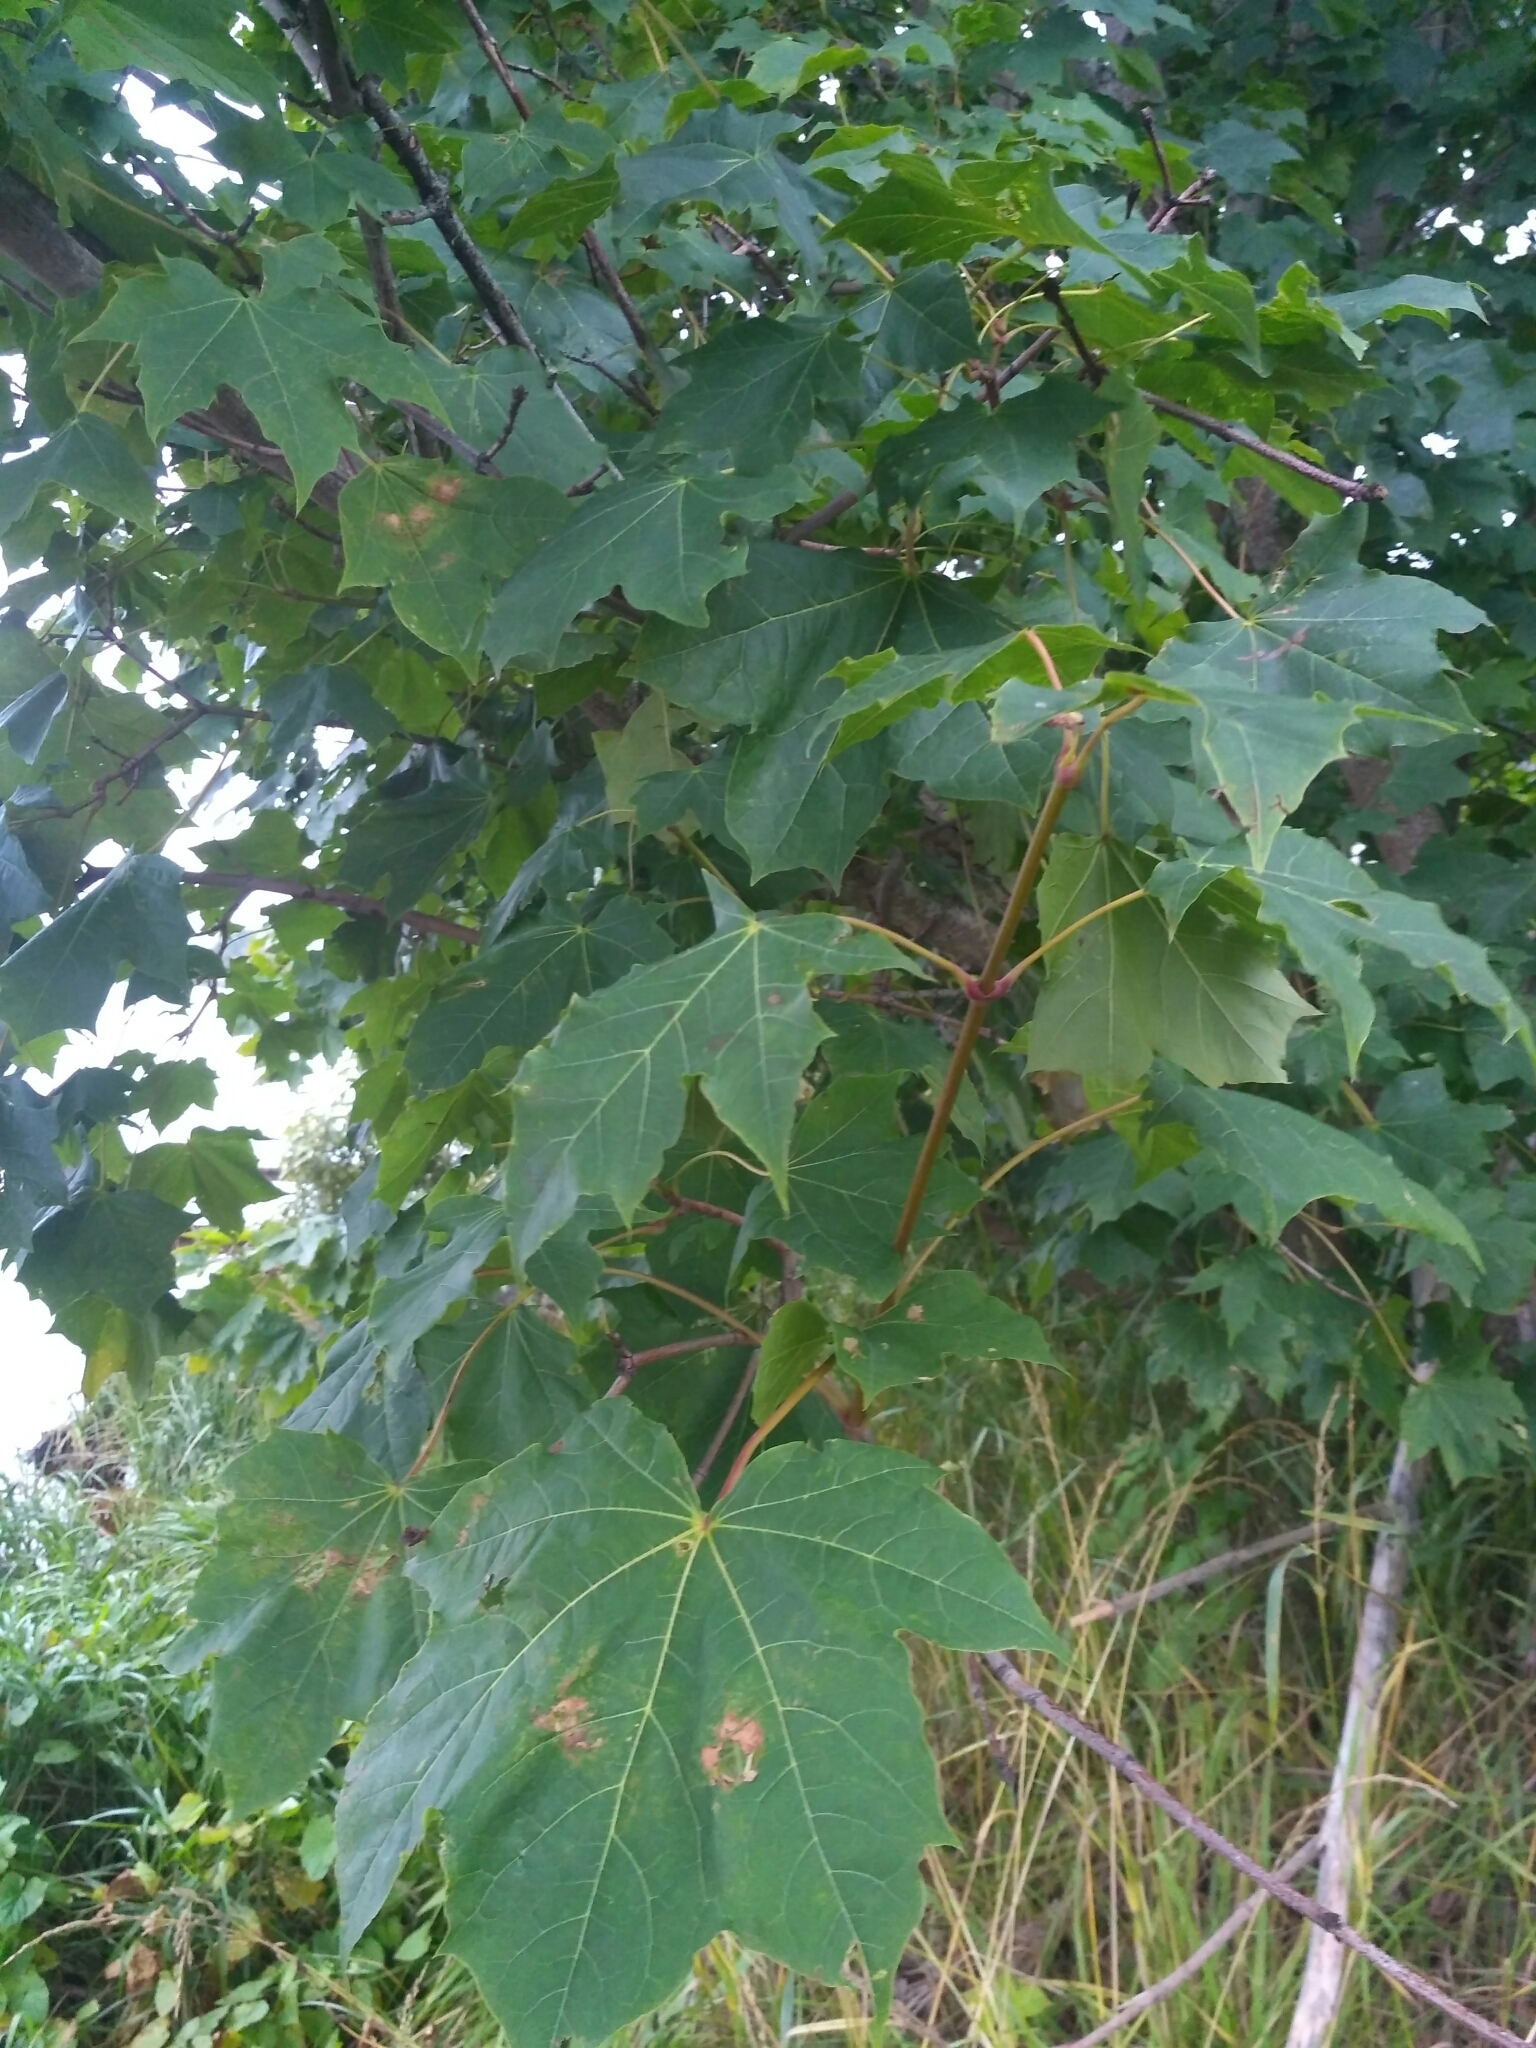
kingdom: Plantae
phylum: Tracheophyta
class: Magnoliopsida
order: Sapindales
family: Sapindaceae
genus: Acer
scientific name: Acer platanoides
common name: Norway maple
